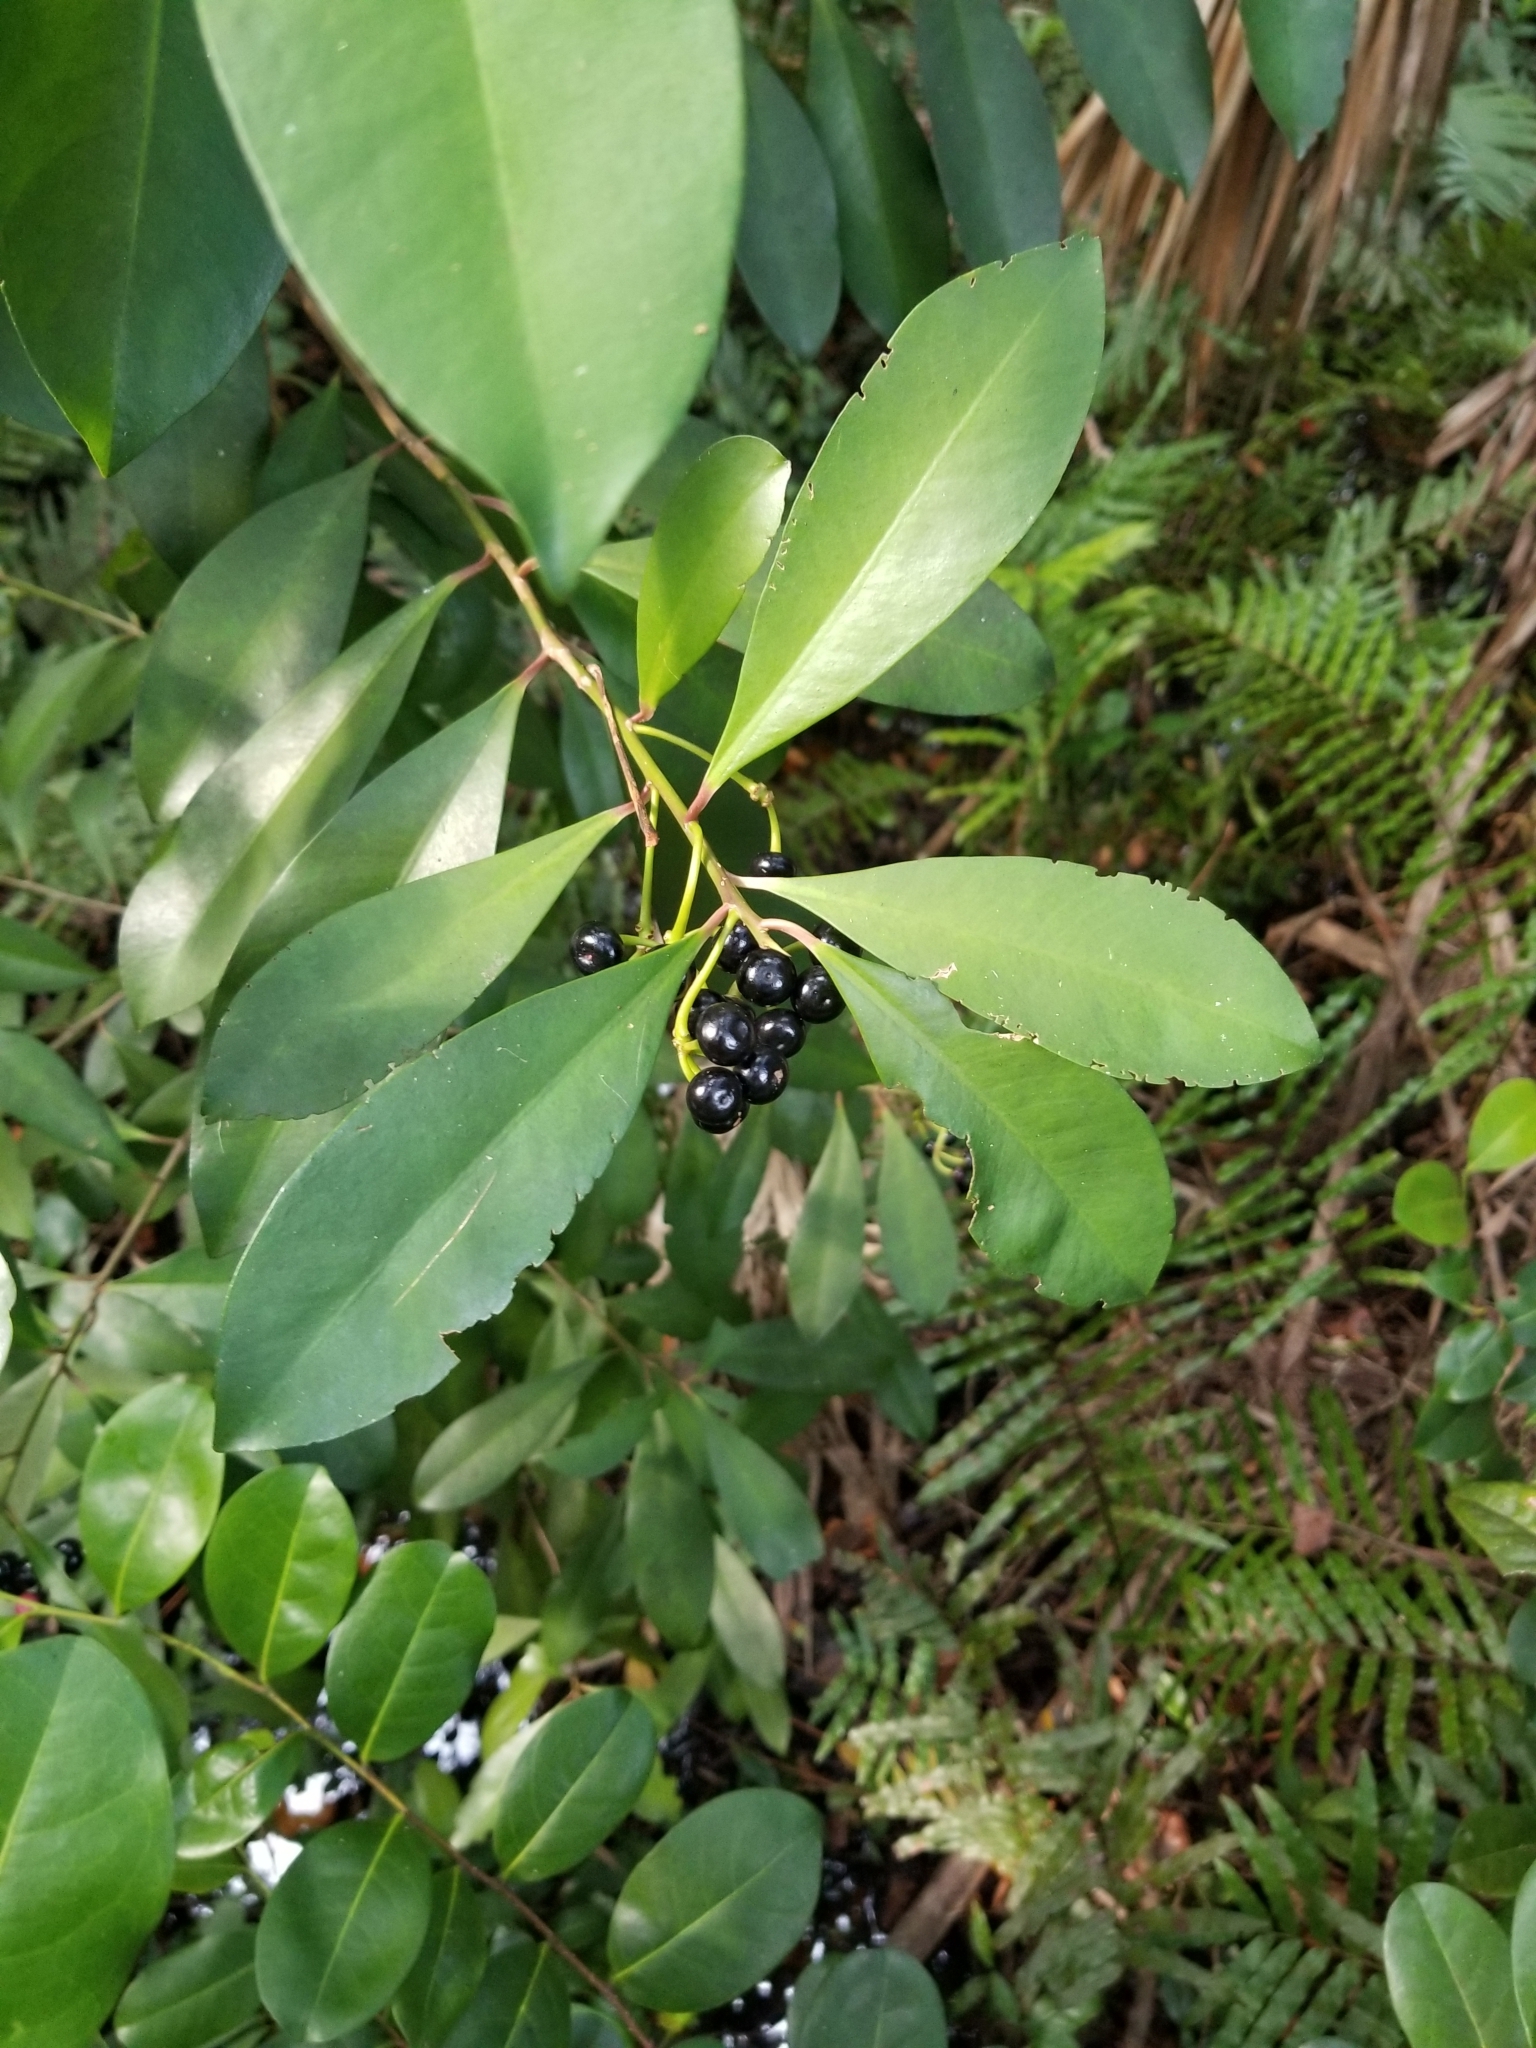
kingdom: Plantae
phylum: Tracheophyta
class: Magnoliopsida
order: Ericales
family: Primulaceae
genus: Ardisia
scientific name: Ardisia elliptica
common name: Shoebutton
